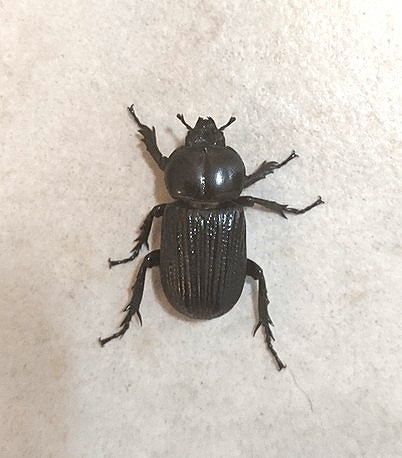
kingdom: Animalia
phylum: Arthropoda
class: Insecta
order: Coleoptera
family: Scarabaeidae
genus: Phileurus
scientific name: Phileurus valgus
